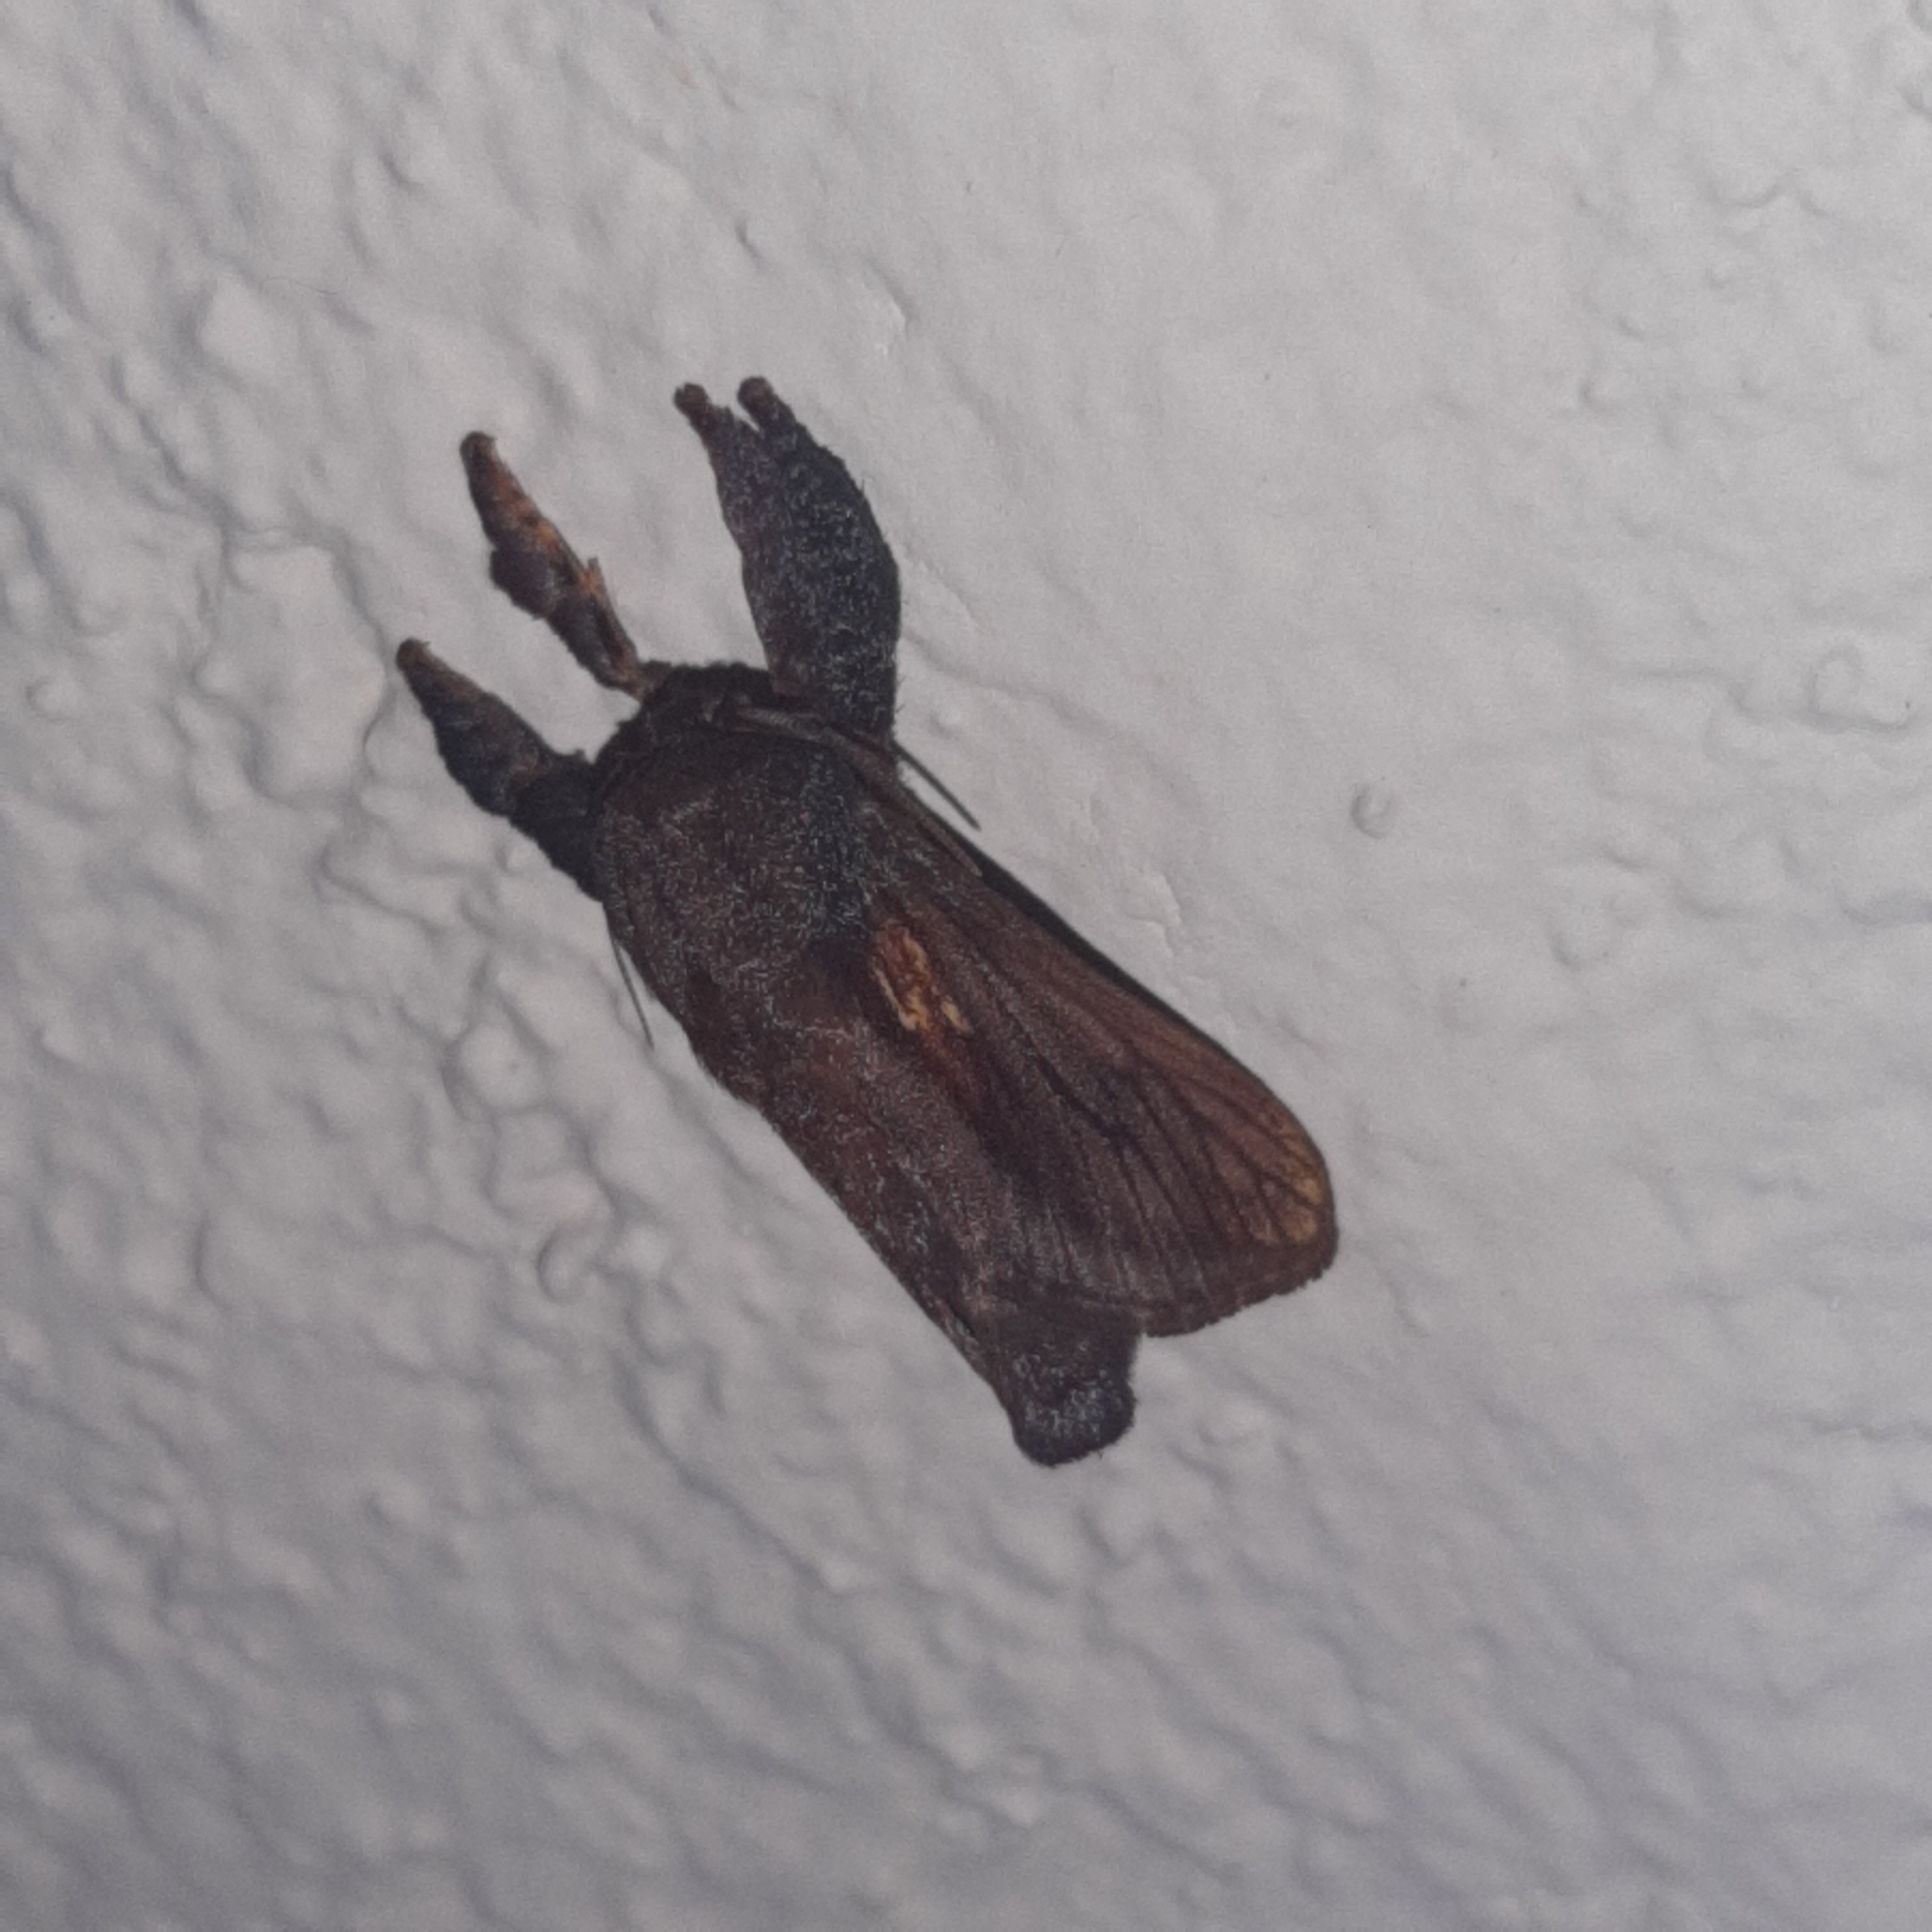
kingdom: Animalia
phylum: Arthropoda
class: Insecta
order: Lepidoptera
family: Limacodidae
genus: Talima
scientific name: Talima aurora
